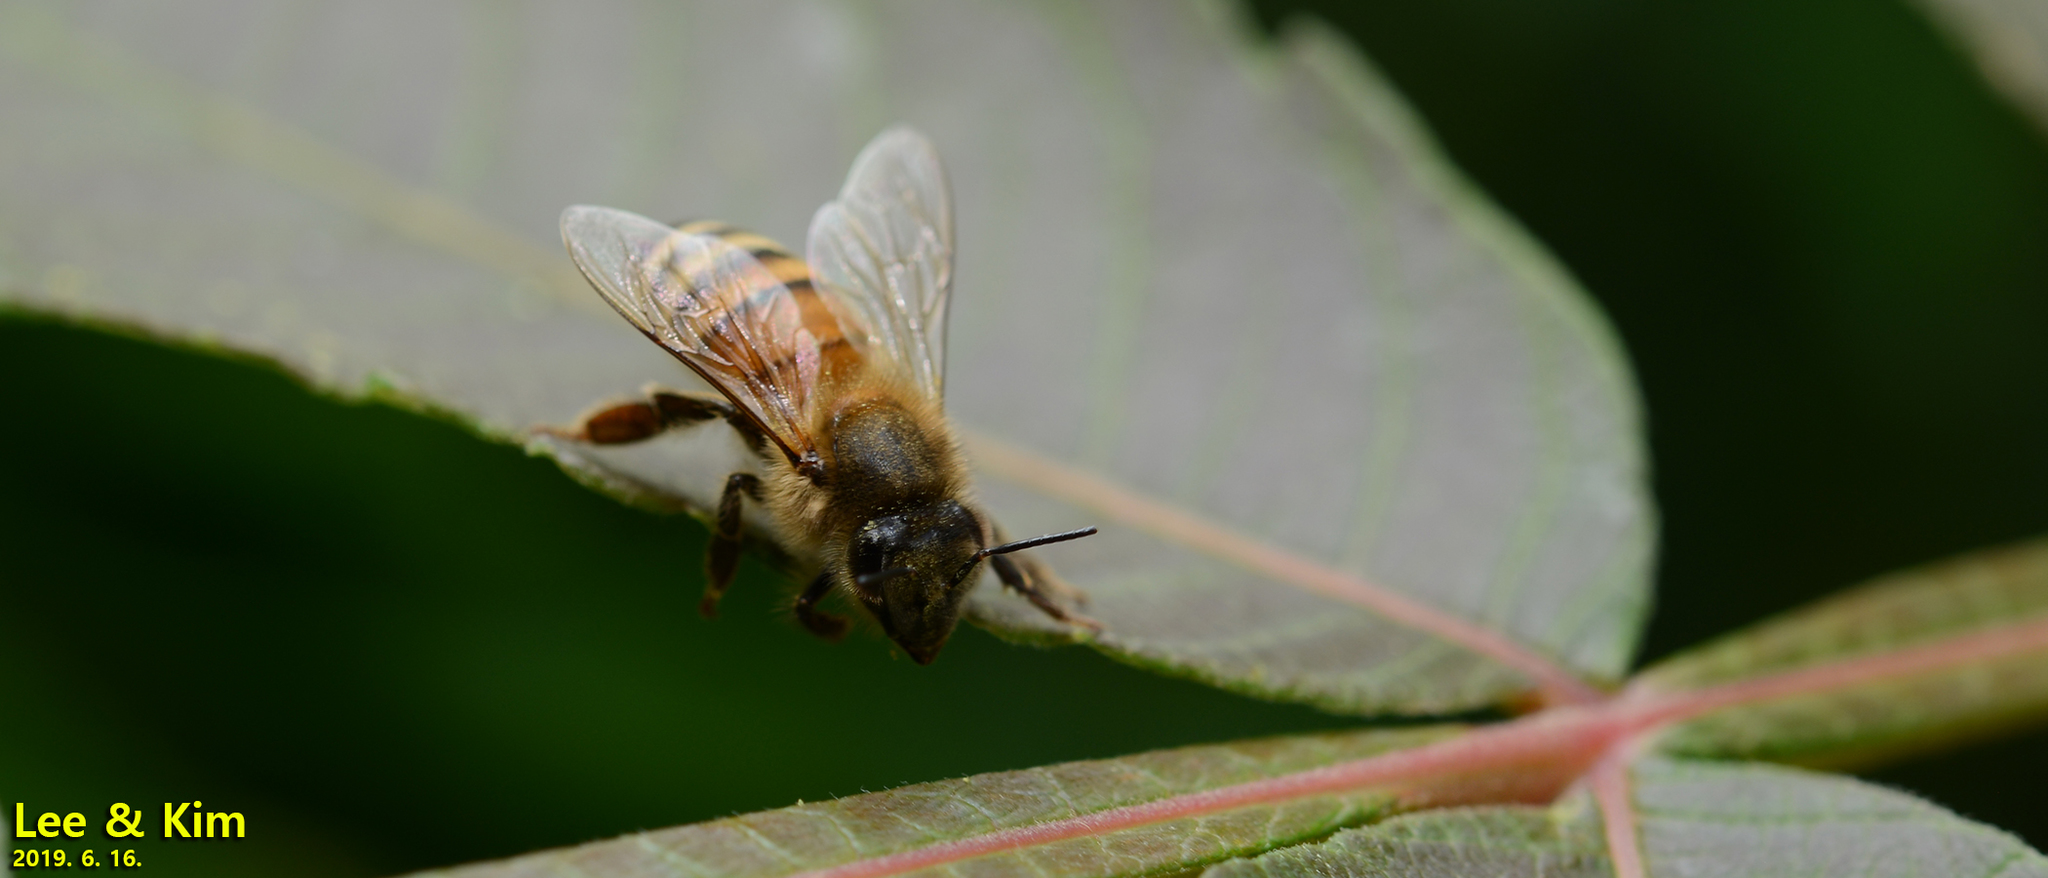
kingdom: Animalia
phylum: Arthropoda
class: Insecta
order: Hymenoptera
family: Apidae
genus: Apis
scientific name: Apis mellifera
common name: Honey bee
